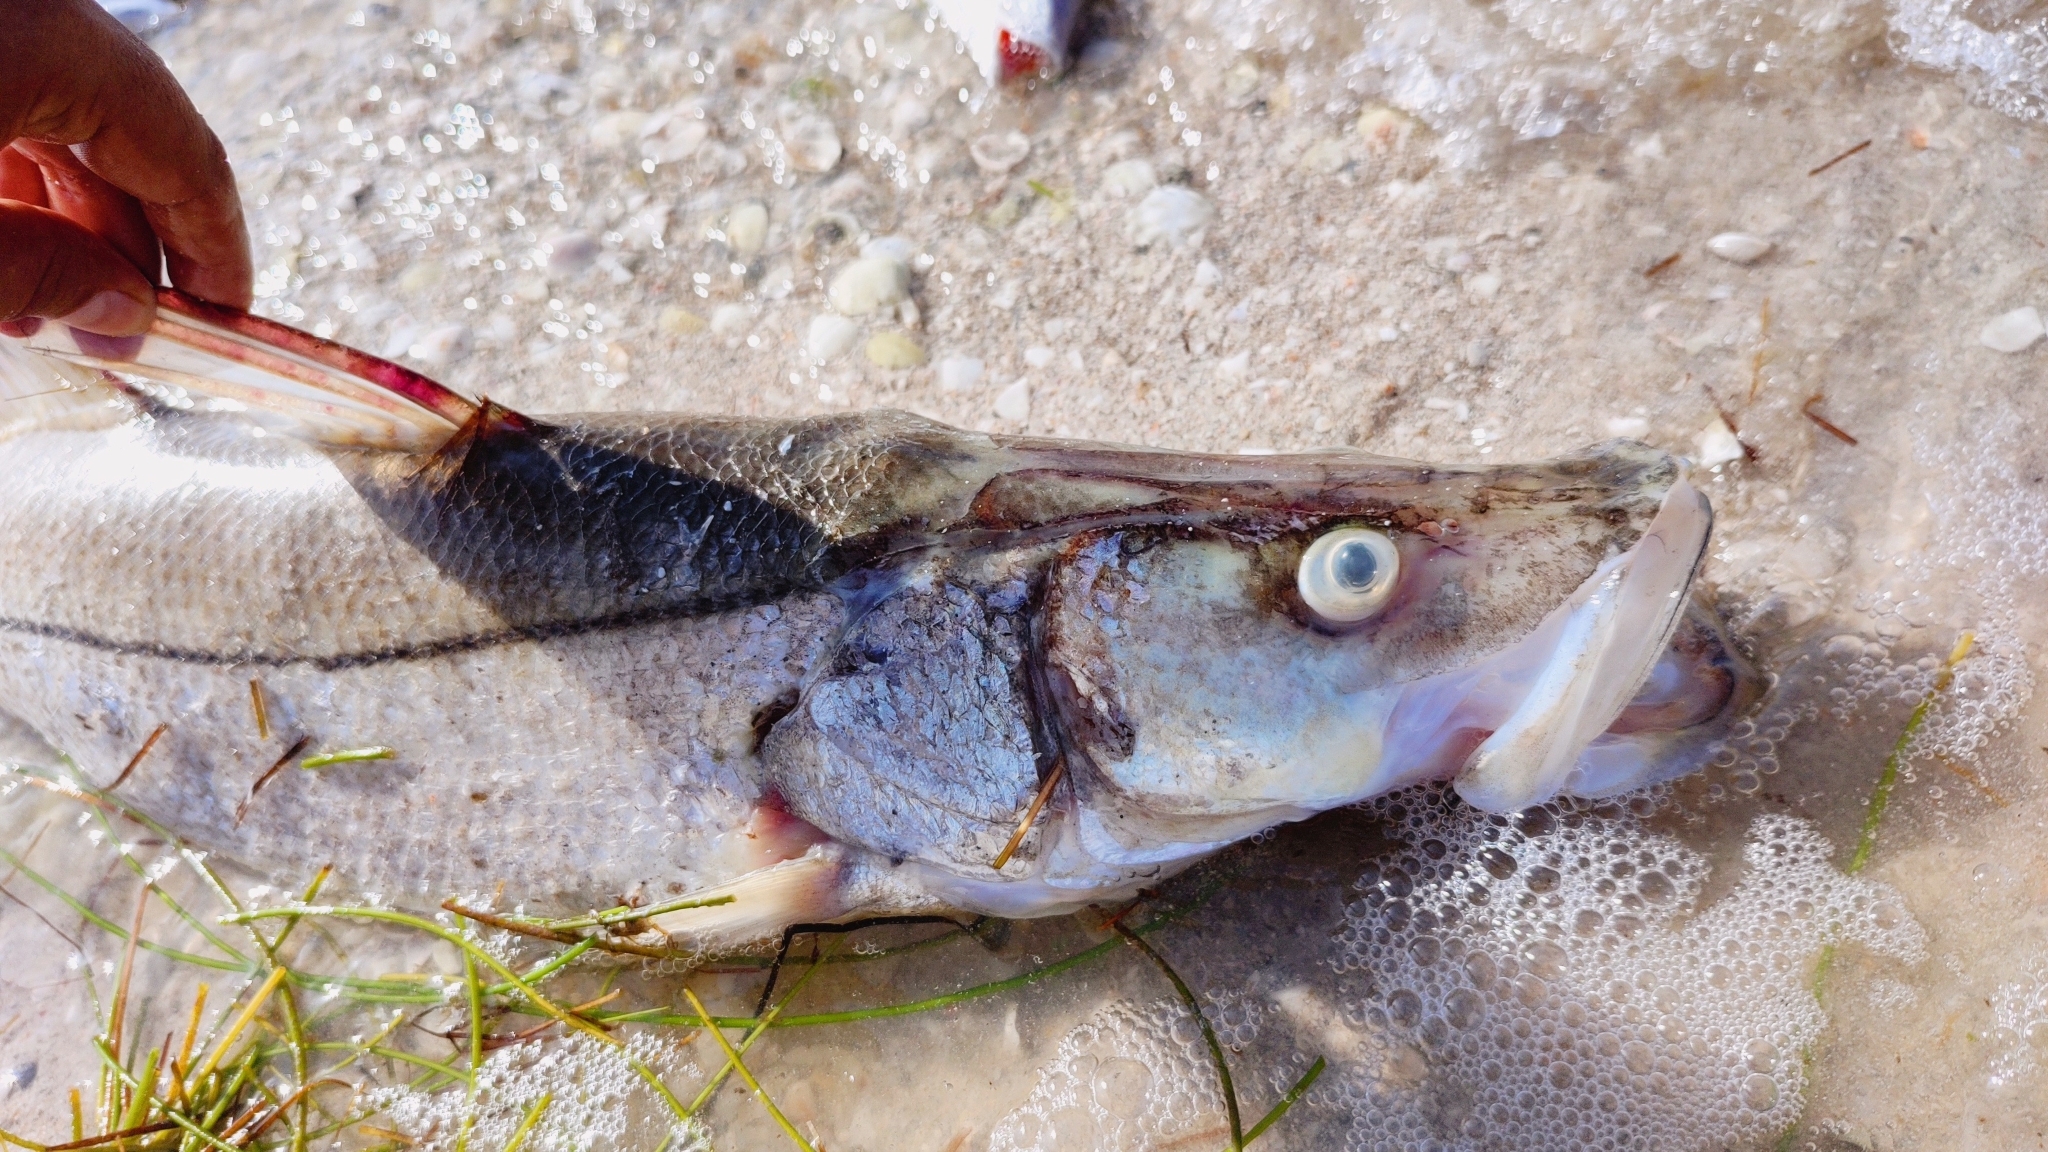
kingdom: Animalia
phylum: Chordata
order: Perciformes
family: Centropomidae
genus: Centropomus
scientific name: Centropomus undecimalis
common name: Snook
